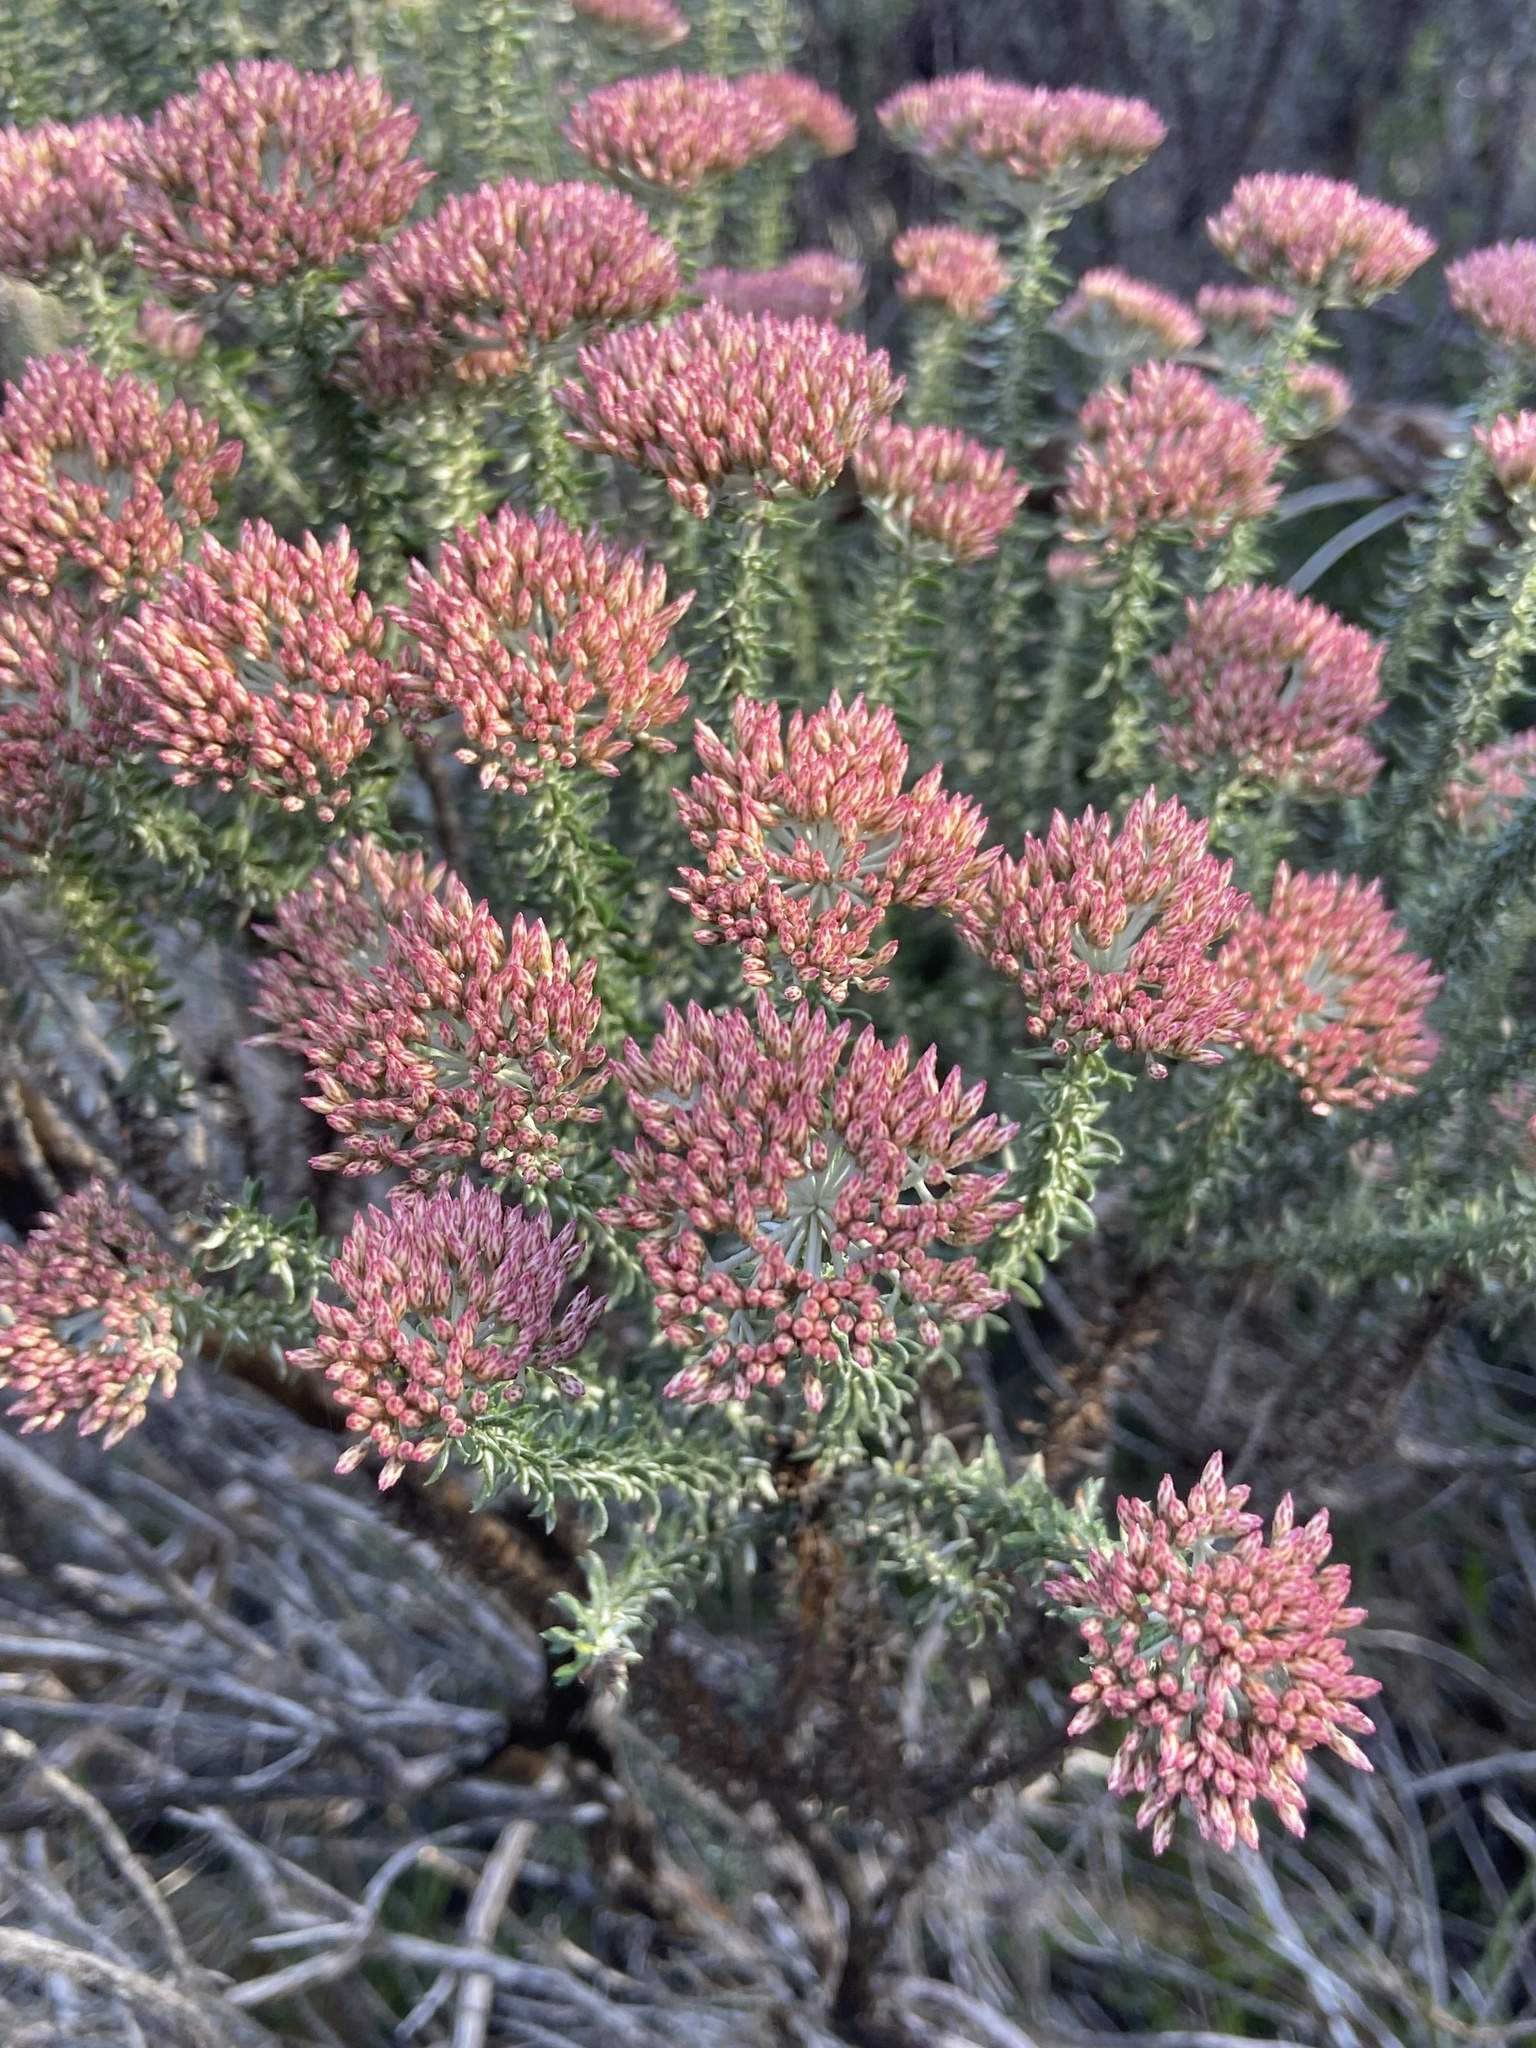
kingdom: Plantae
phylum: Tracheophyta
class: Magnoliopsida
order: Asterales
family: Asteraceae
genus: Metalasia
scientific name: Metalasia densa
